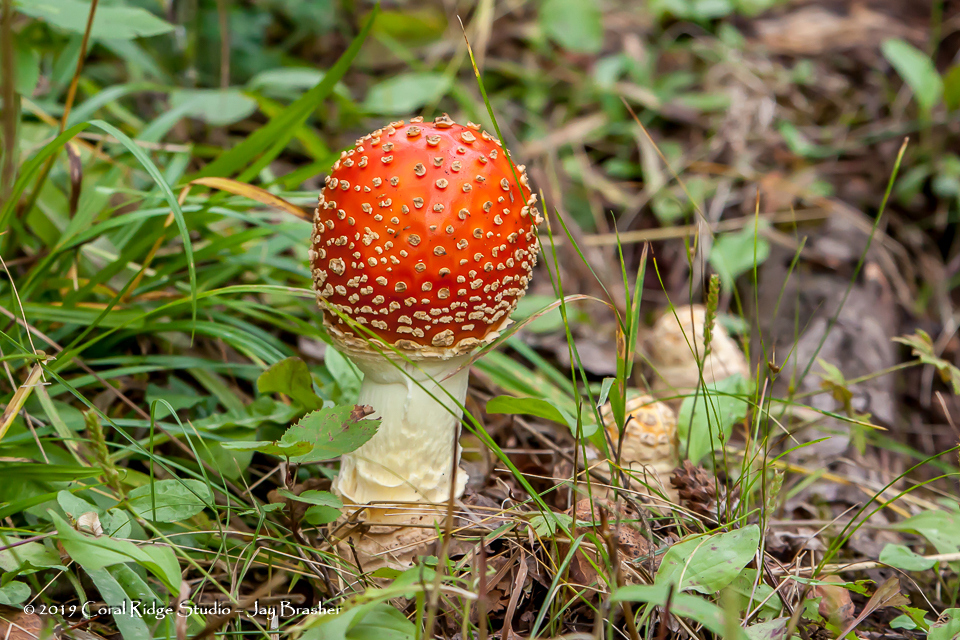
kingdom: Fungi
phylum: Basidiomycota
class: Agaricomycetes
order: Agaricales
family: Amanitaceae
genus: Amanita
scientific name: Amanita muscaria
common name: Fly agaric
